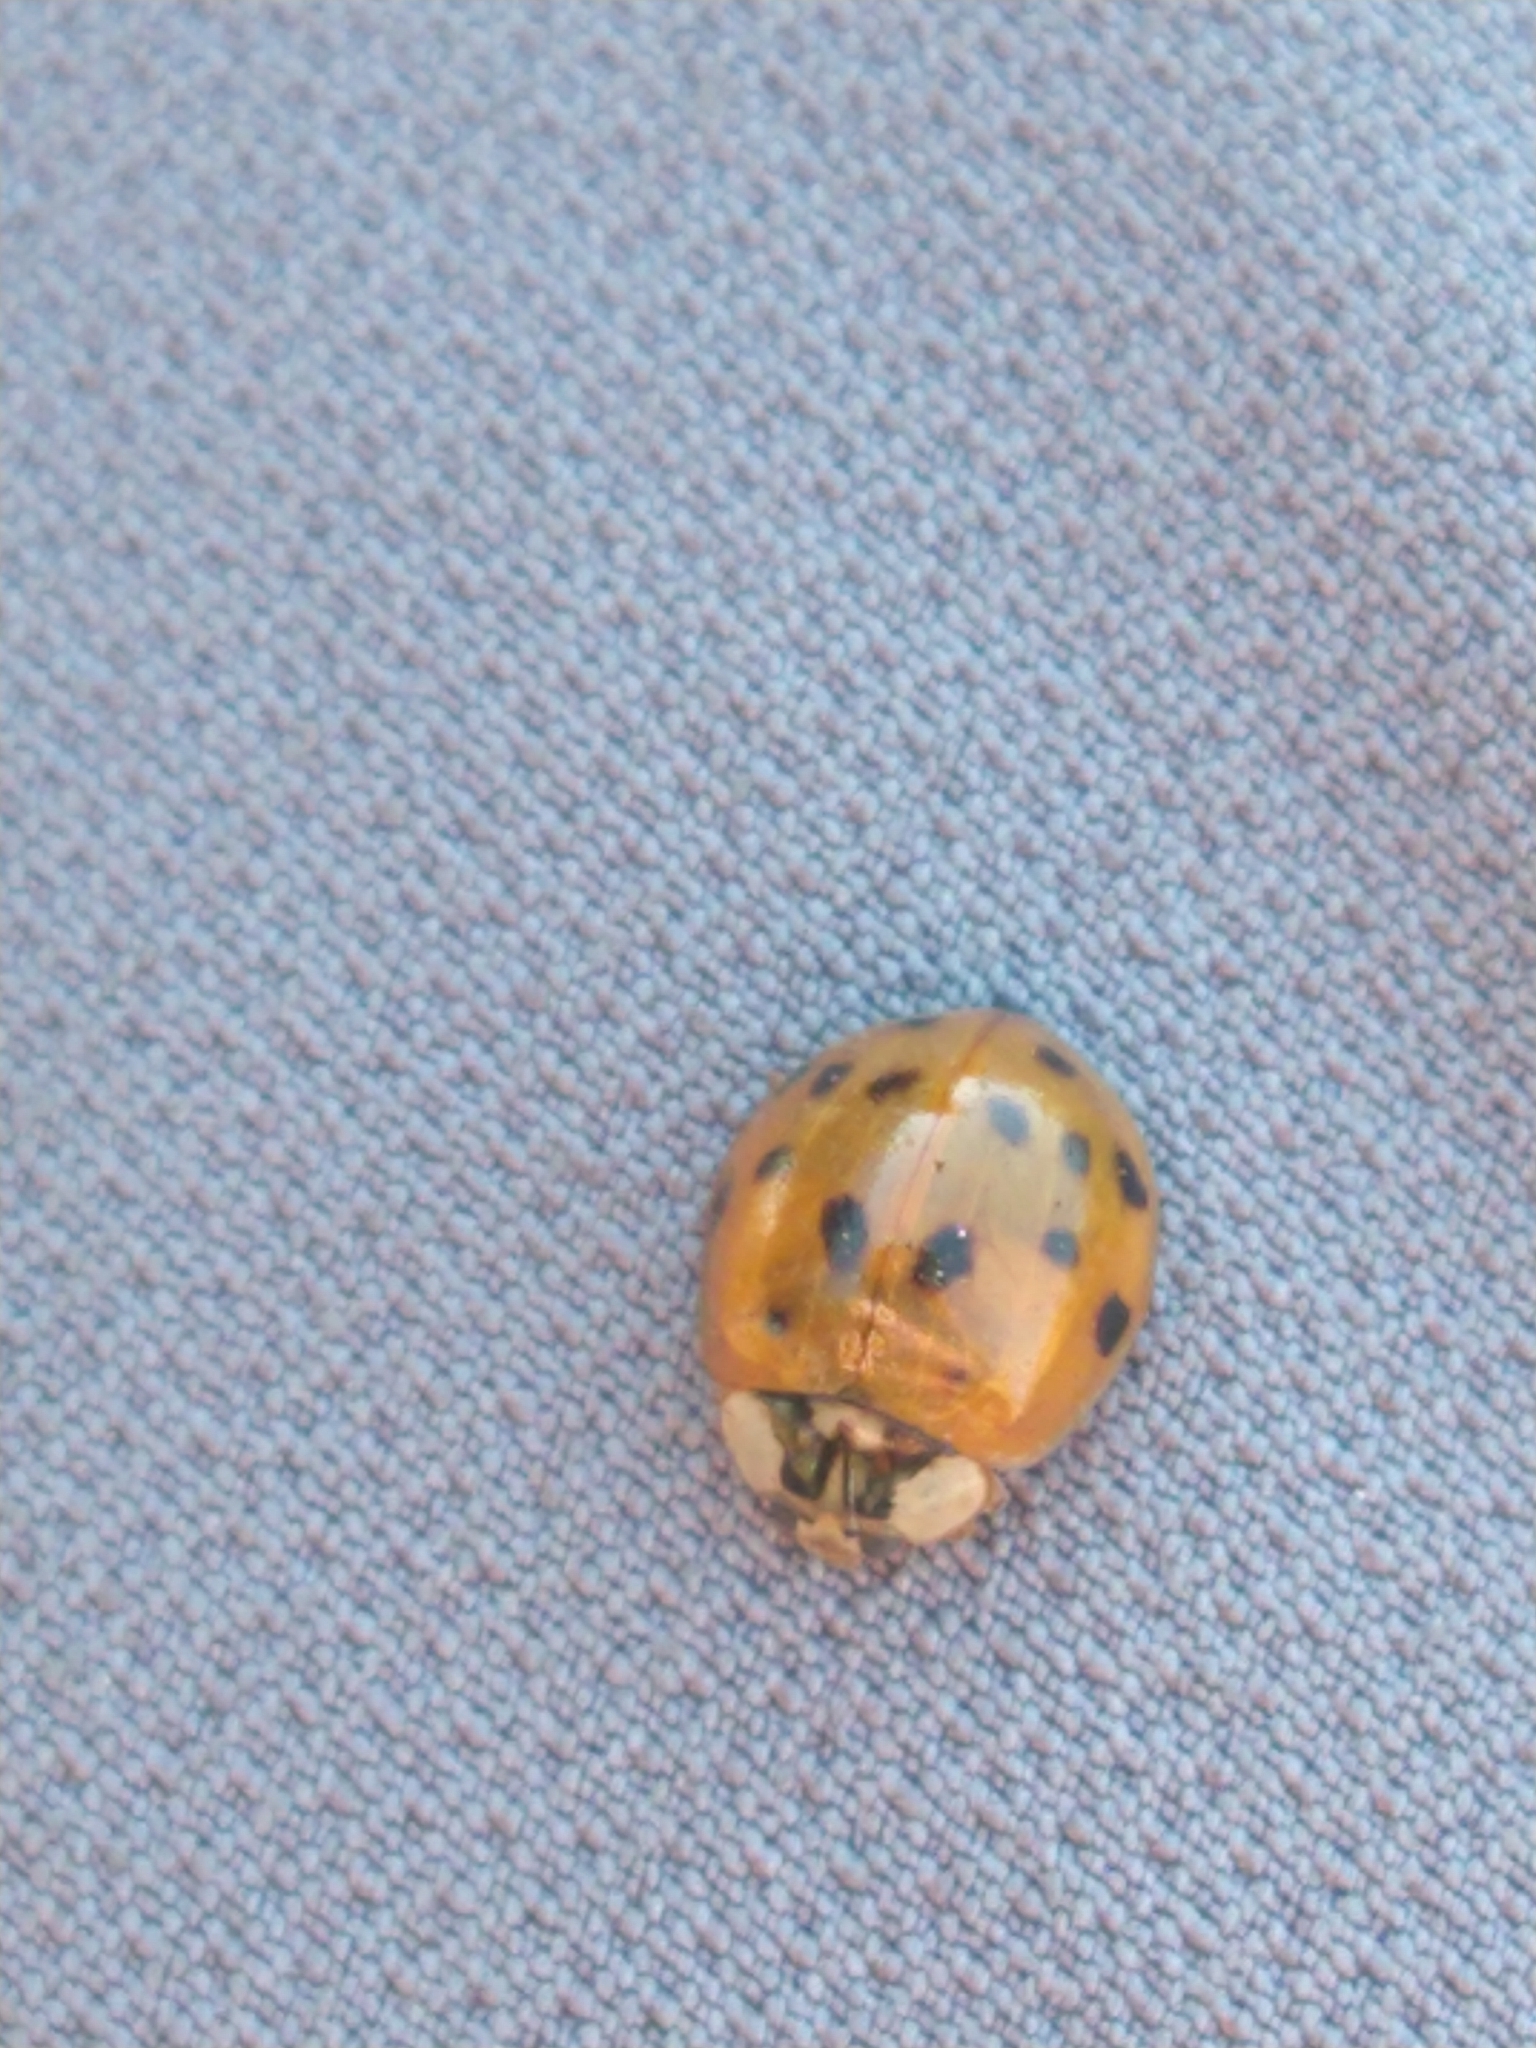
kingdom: Animalia
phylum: Arthropoda
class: Insecta
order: Coleoptera
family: Coccinellidae
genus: Harmonia
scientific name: Harmonia axyridis
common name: Harlequin ladybird
